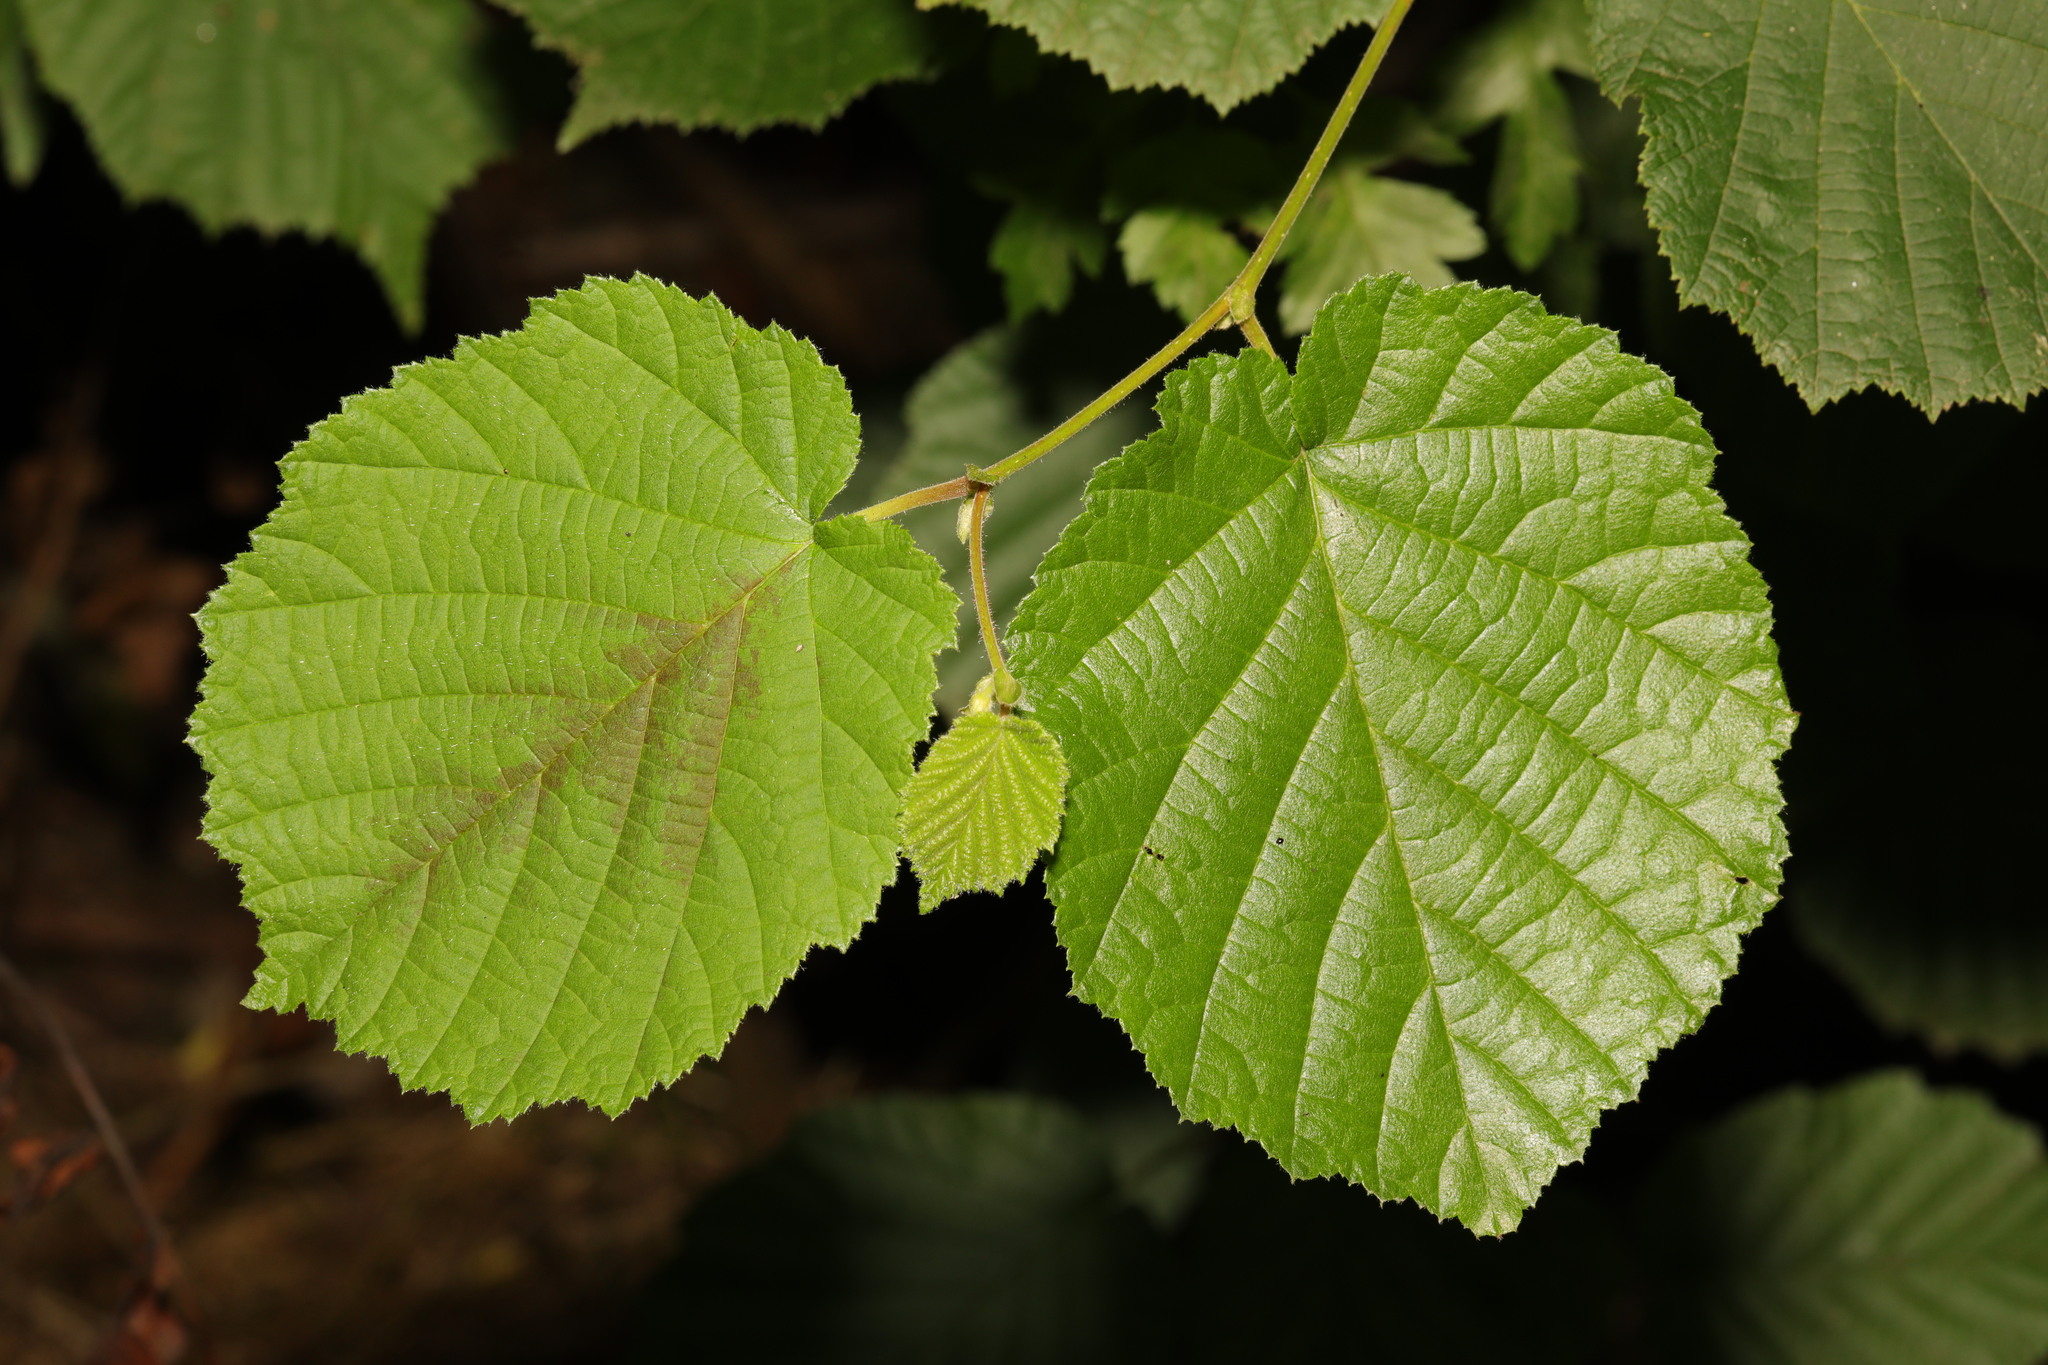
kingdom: Plantae
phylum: Tracheophyta
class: Magnoliopsida
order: Fagales
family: Betulaceae
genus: Corylus
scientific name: Corylus avellana
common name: European hazel
